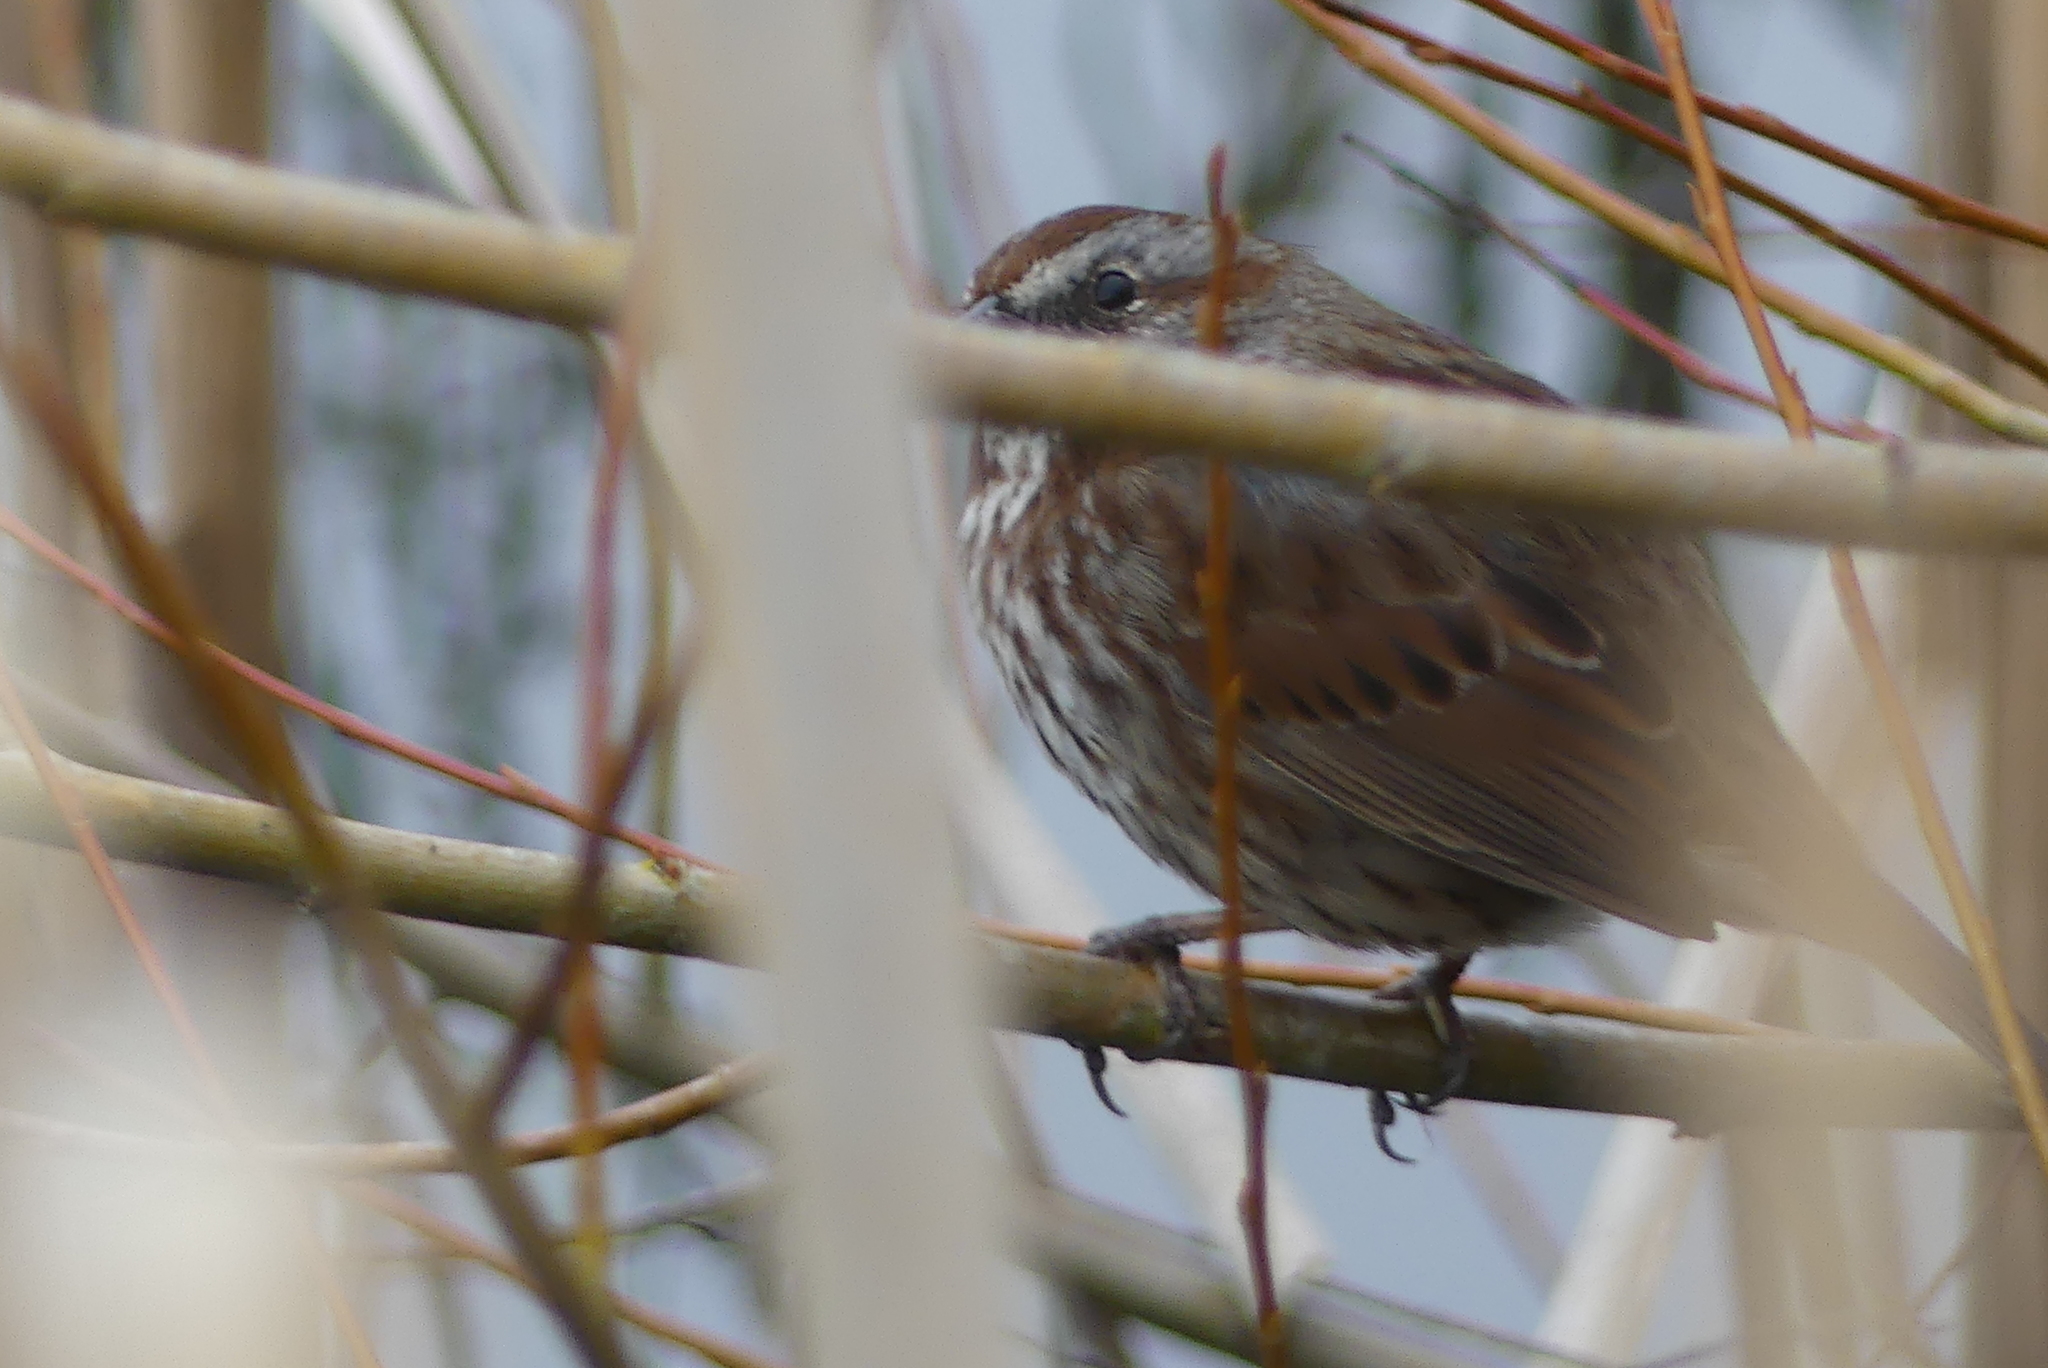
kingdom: Animalia
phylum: Chordata
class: Aves
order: Passeriformes
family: Passerellidae
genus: Melospiza
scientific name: Melospiza melodia
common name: Song sparrow
